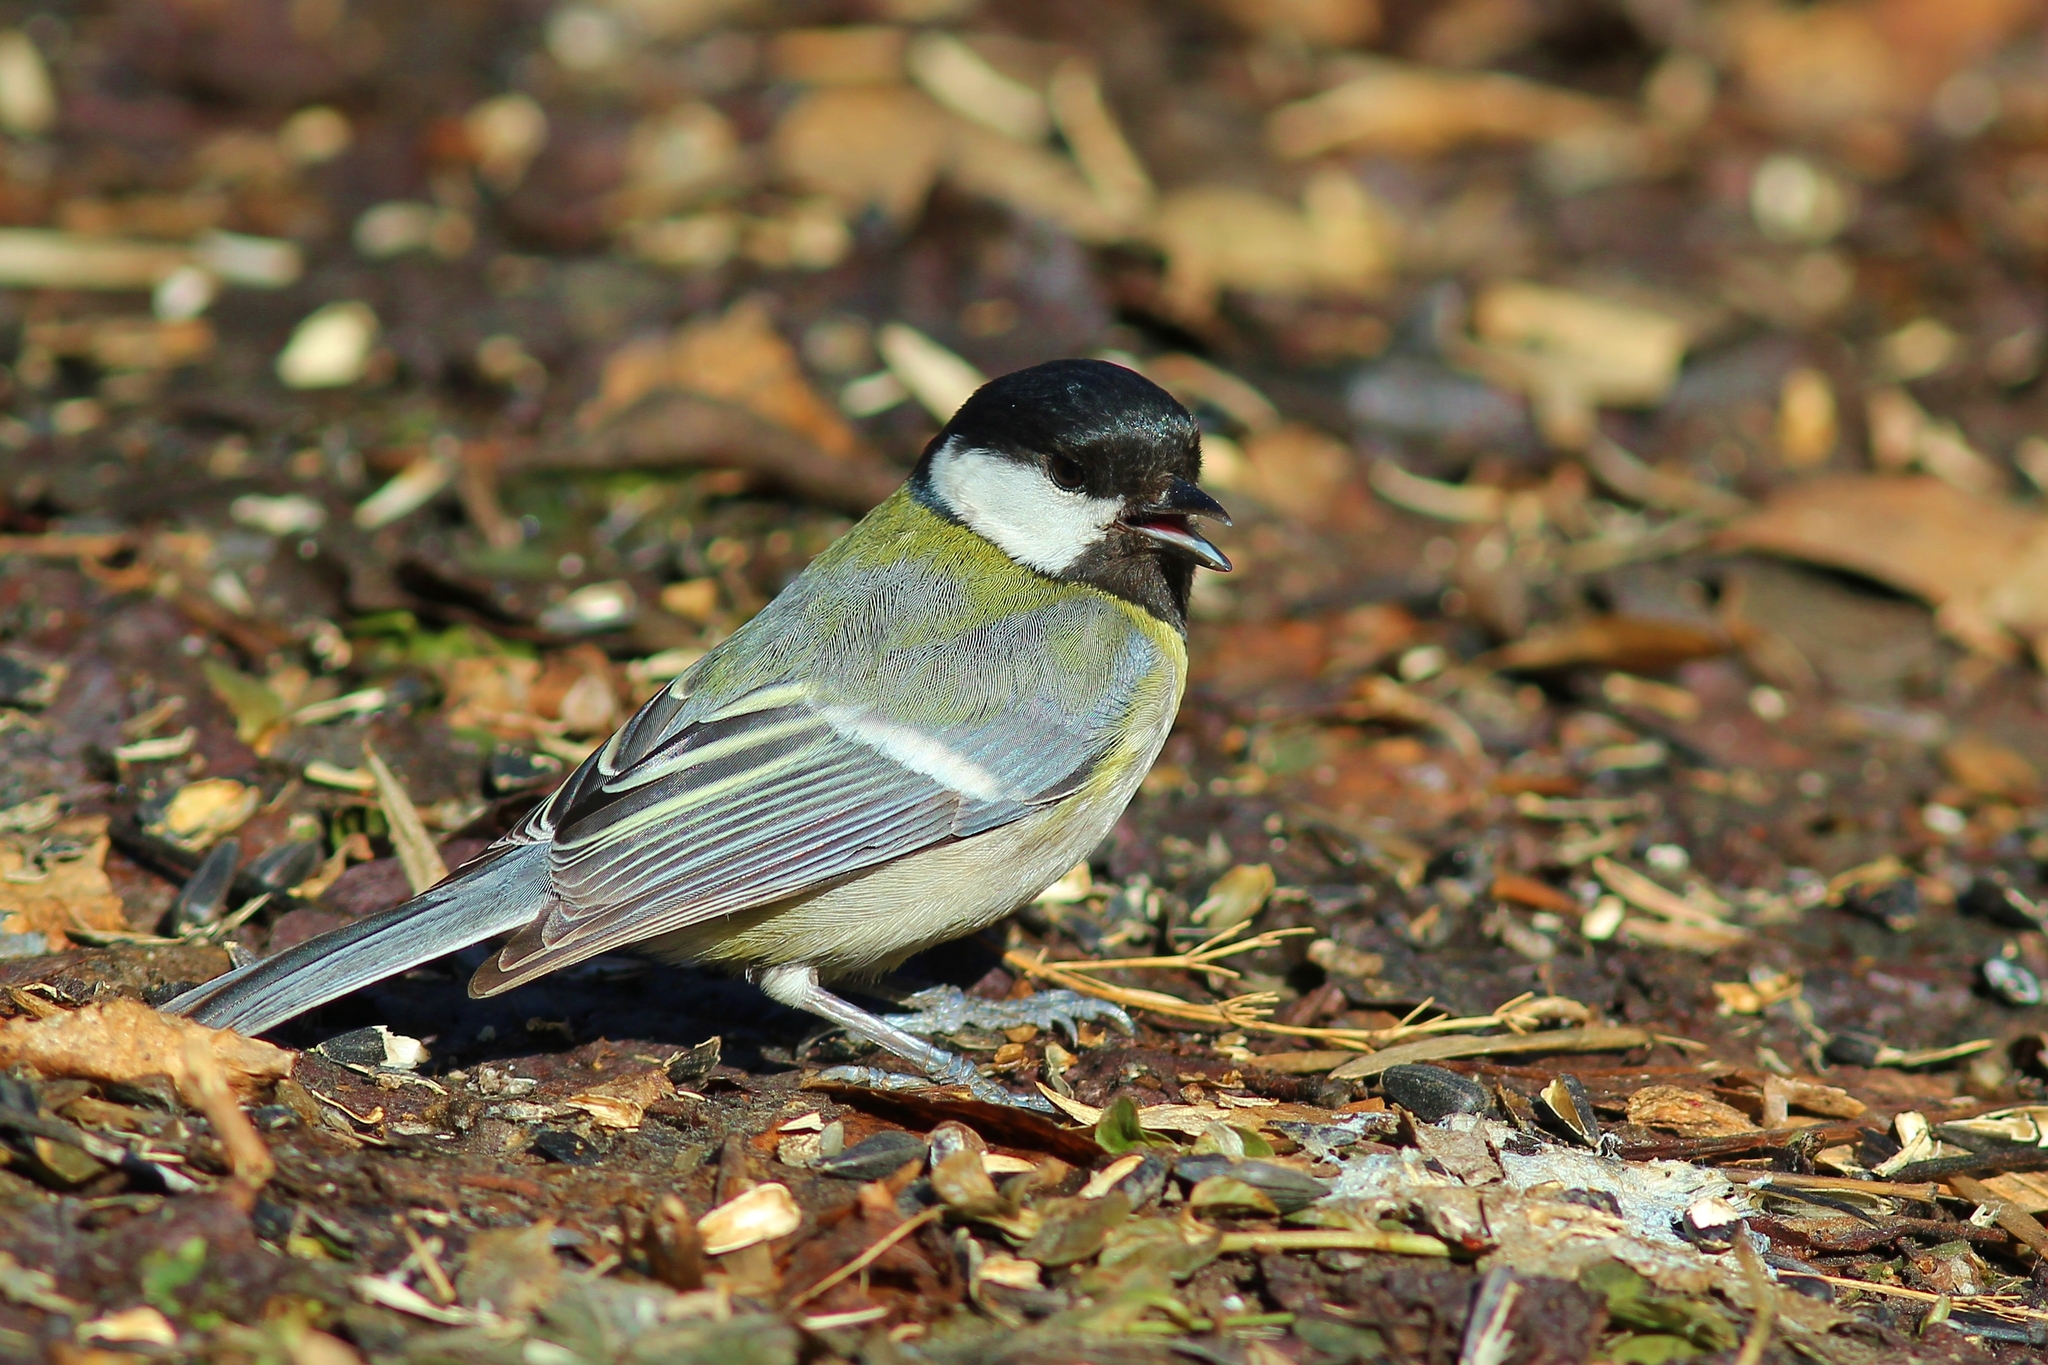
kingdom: Animalia
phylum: Chordata
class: Aves
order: Passeriformes
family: Paridae
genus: Parus
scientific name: Parus major
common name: Great tit
